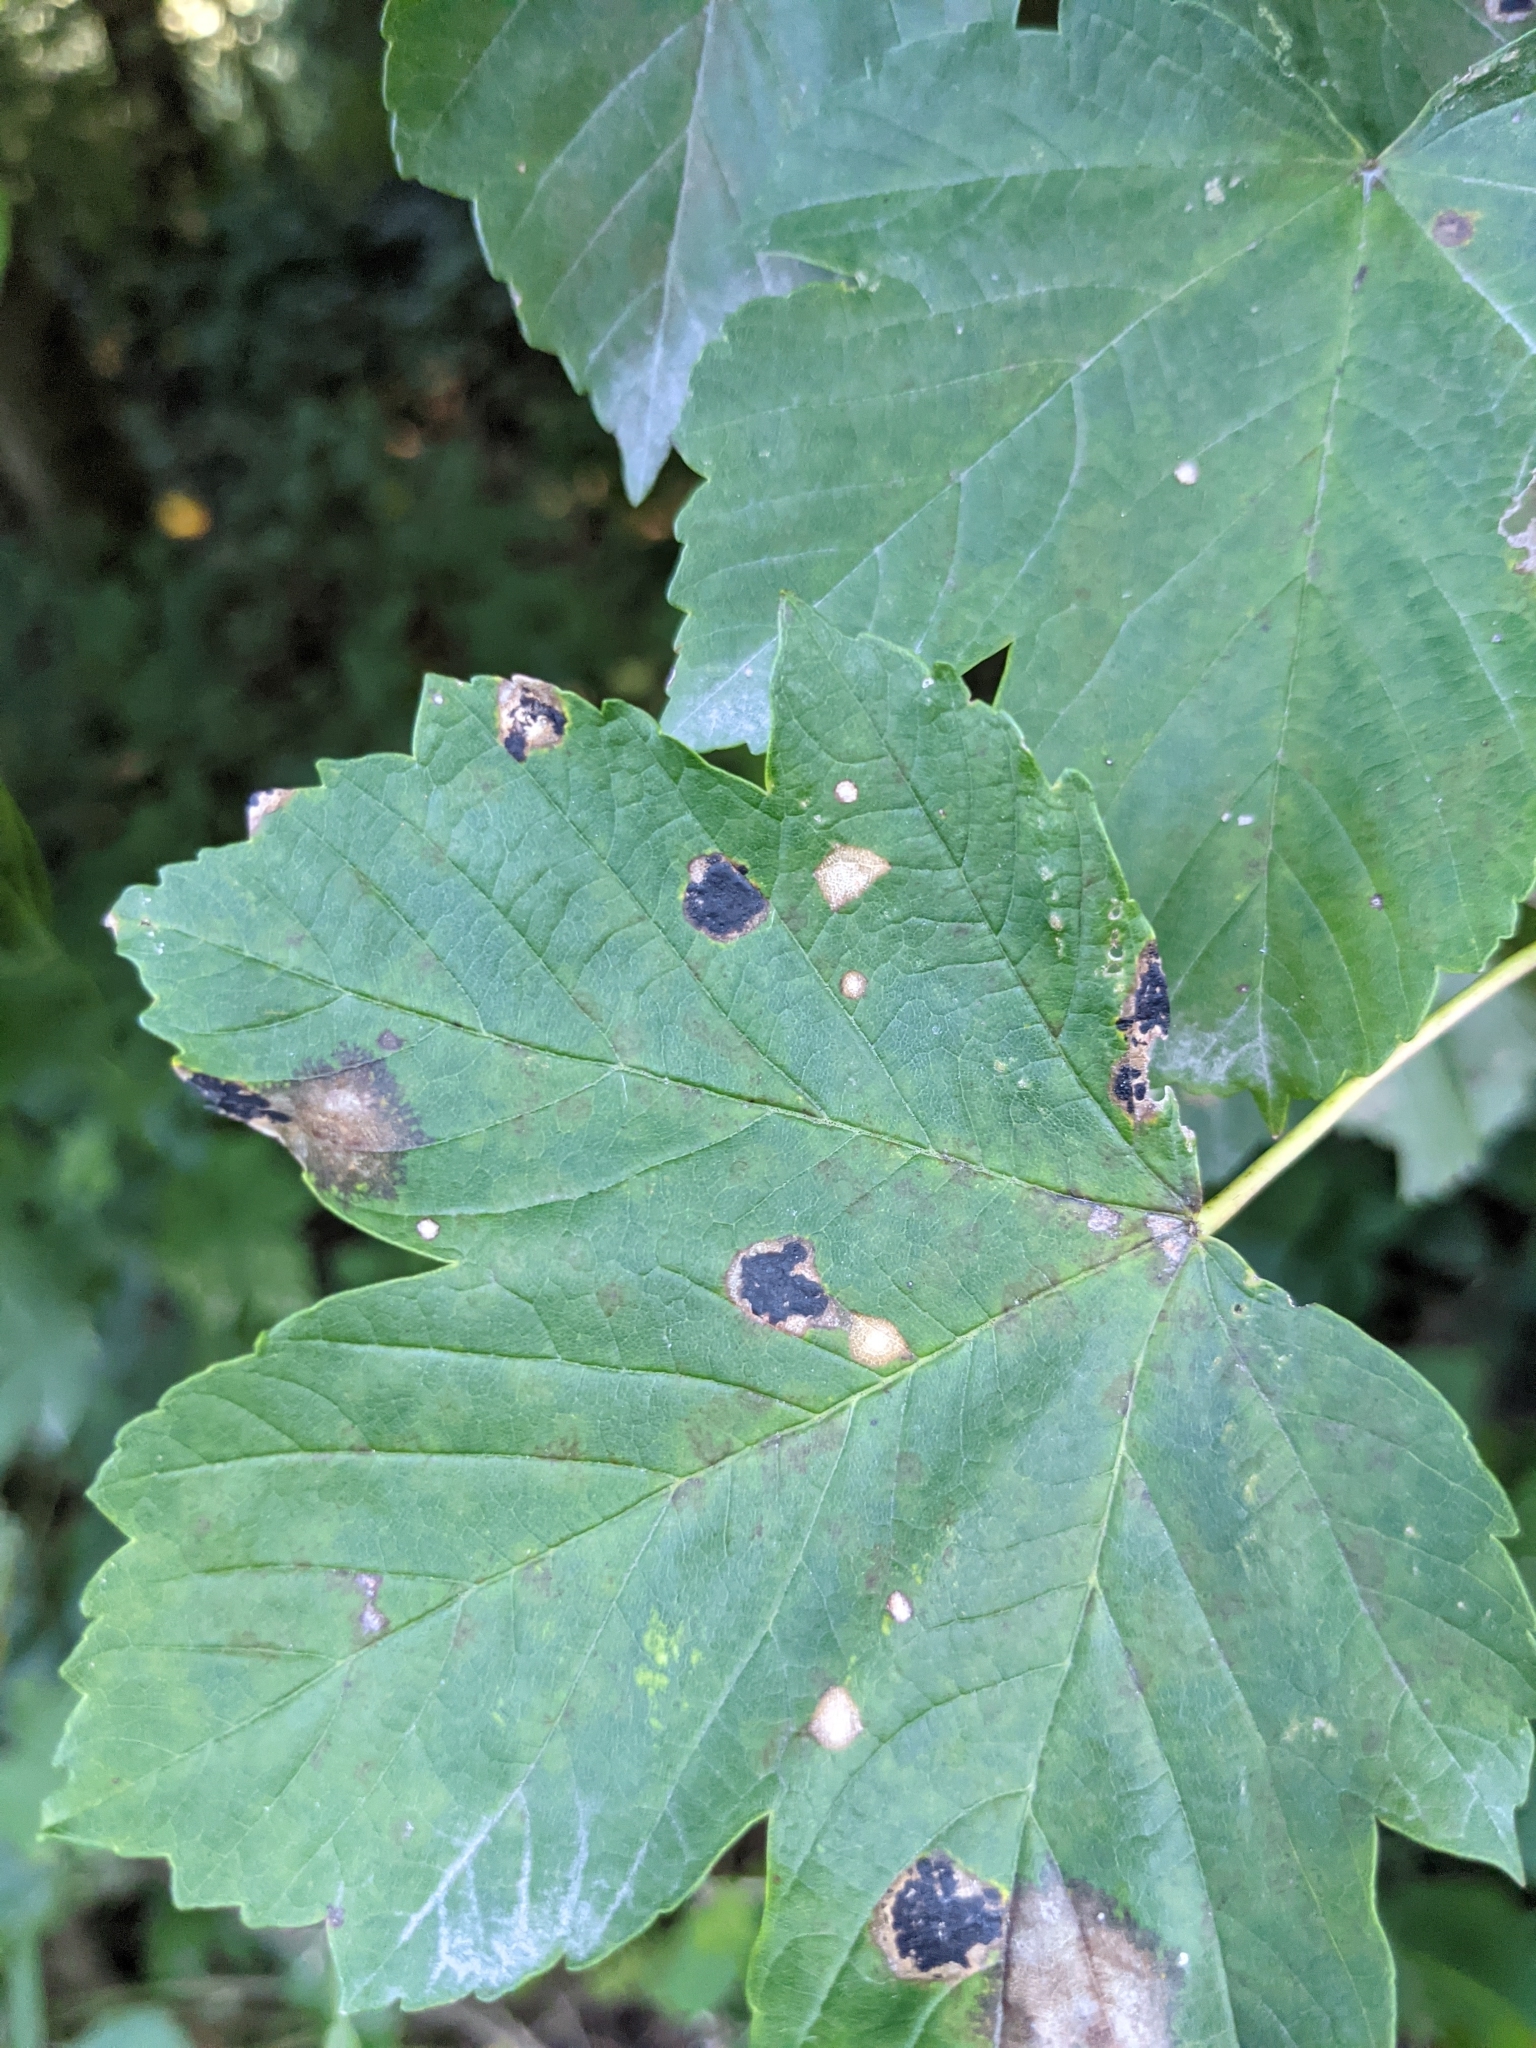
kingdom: Fungi
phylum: Ascomycota
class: Leotiomycetes
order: Rhytismatales
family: Rhytismataceae
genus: Rhytisma
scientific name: Rhytisma acerinum
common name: European tar spot
